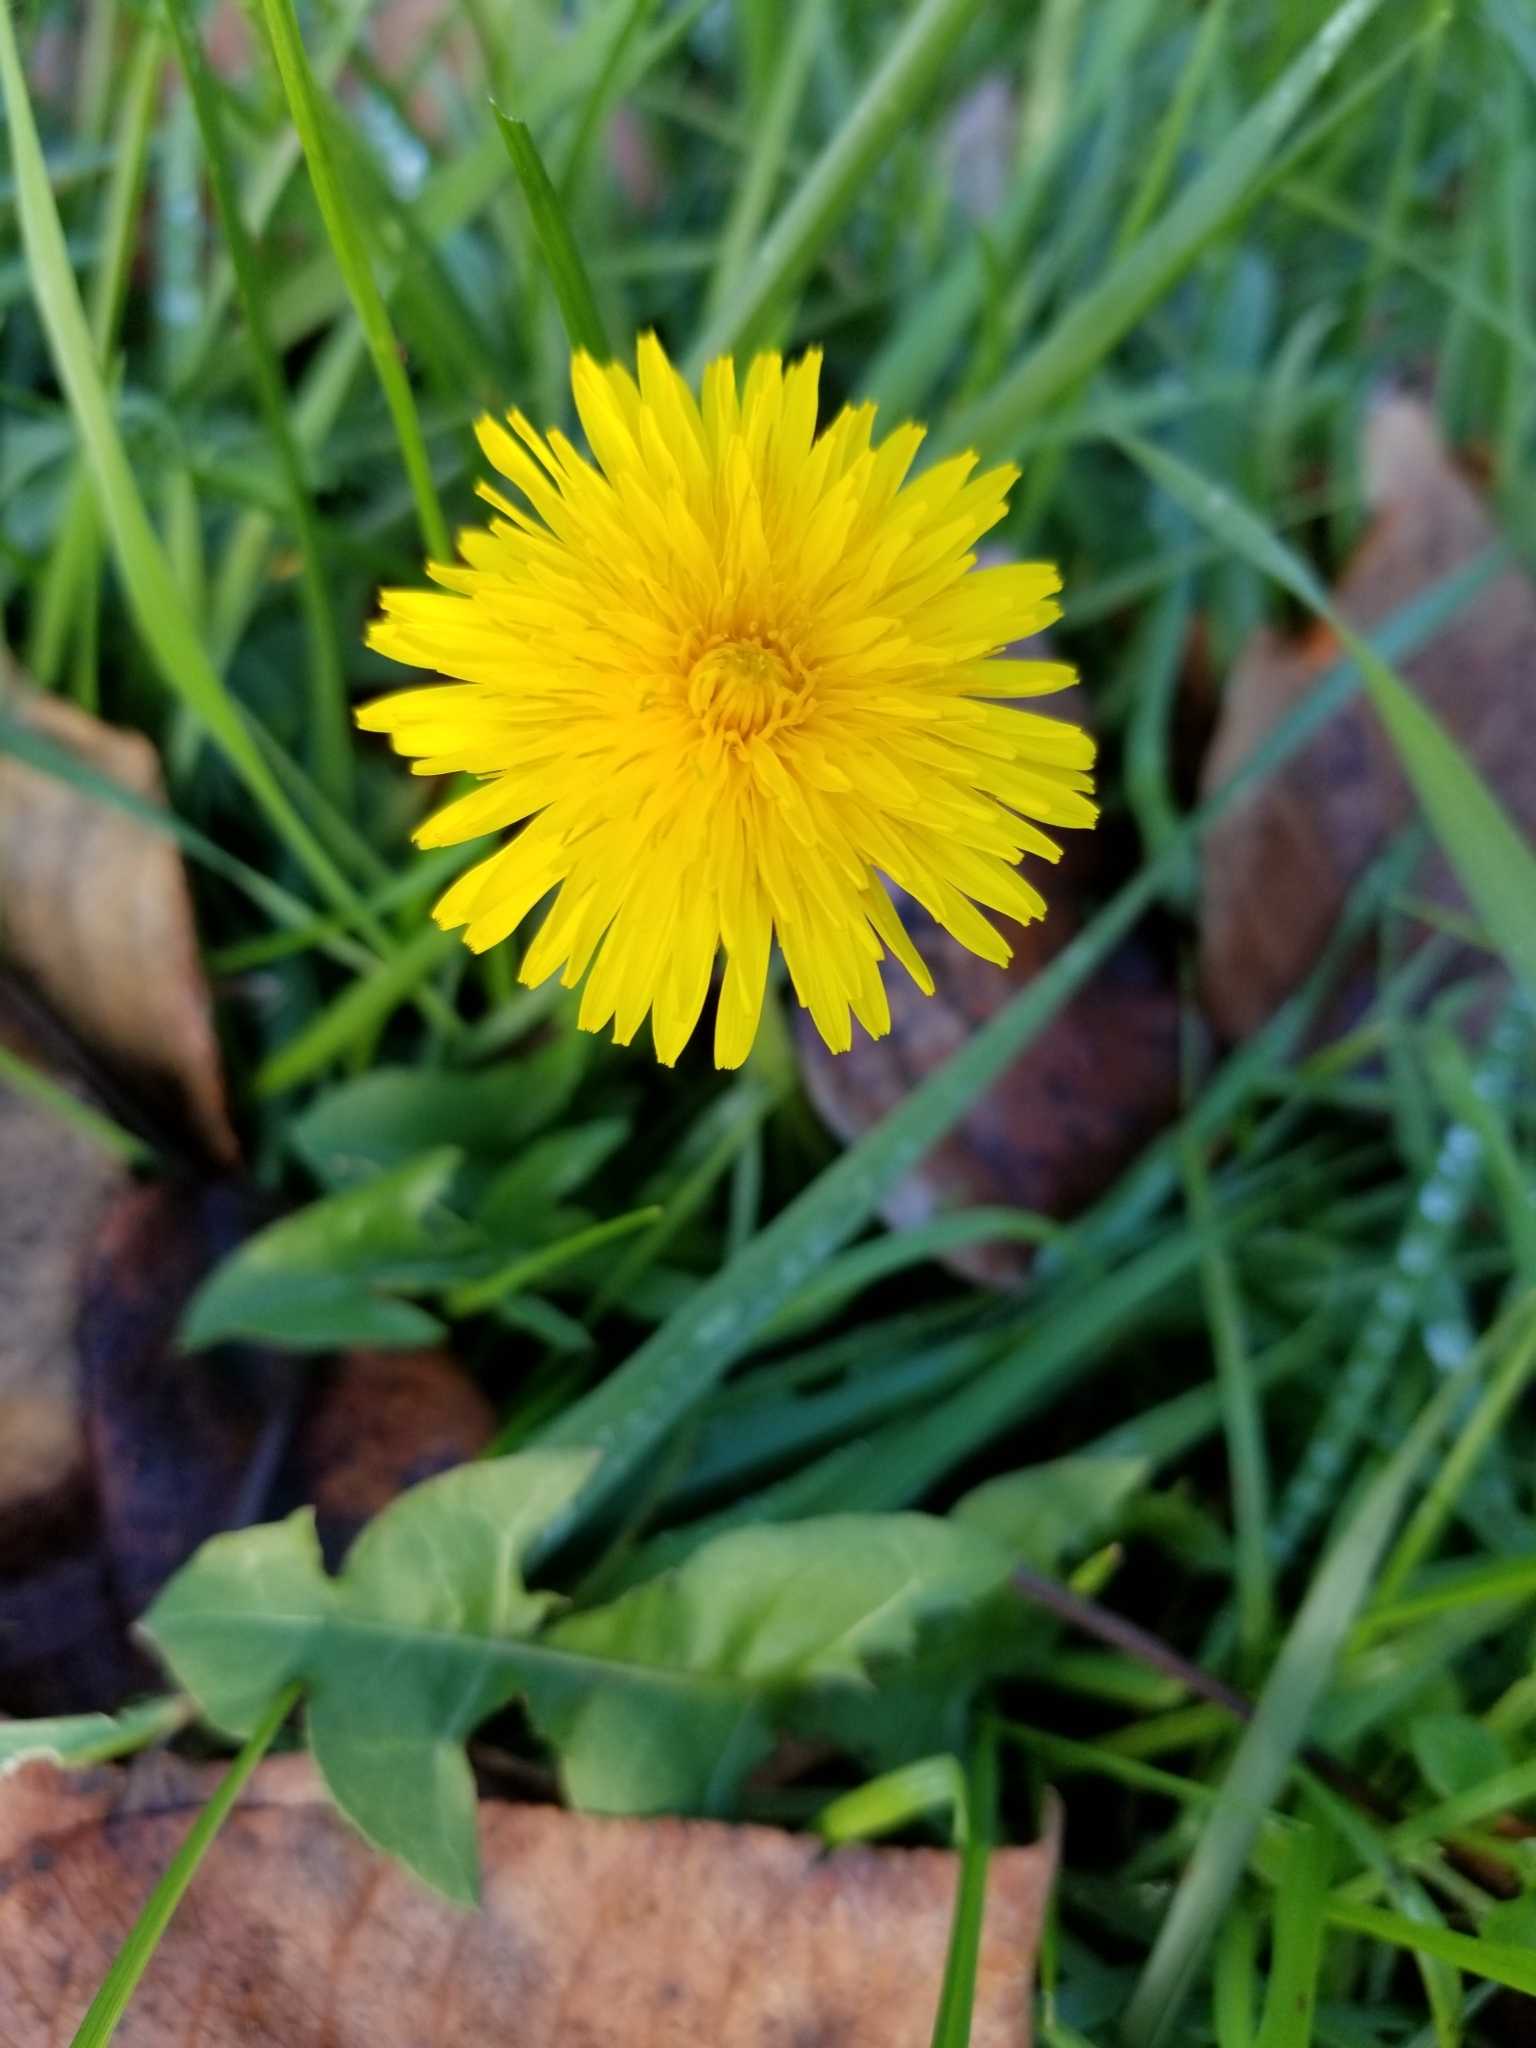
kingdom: Plantae
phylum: Tracheophyta
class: Magnoliopsida
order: Asterales
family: Asteraceae
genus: Taraxacum
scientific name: Taraxacum officinale
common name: Common dandelion
